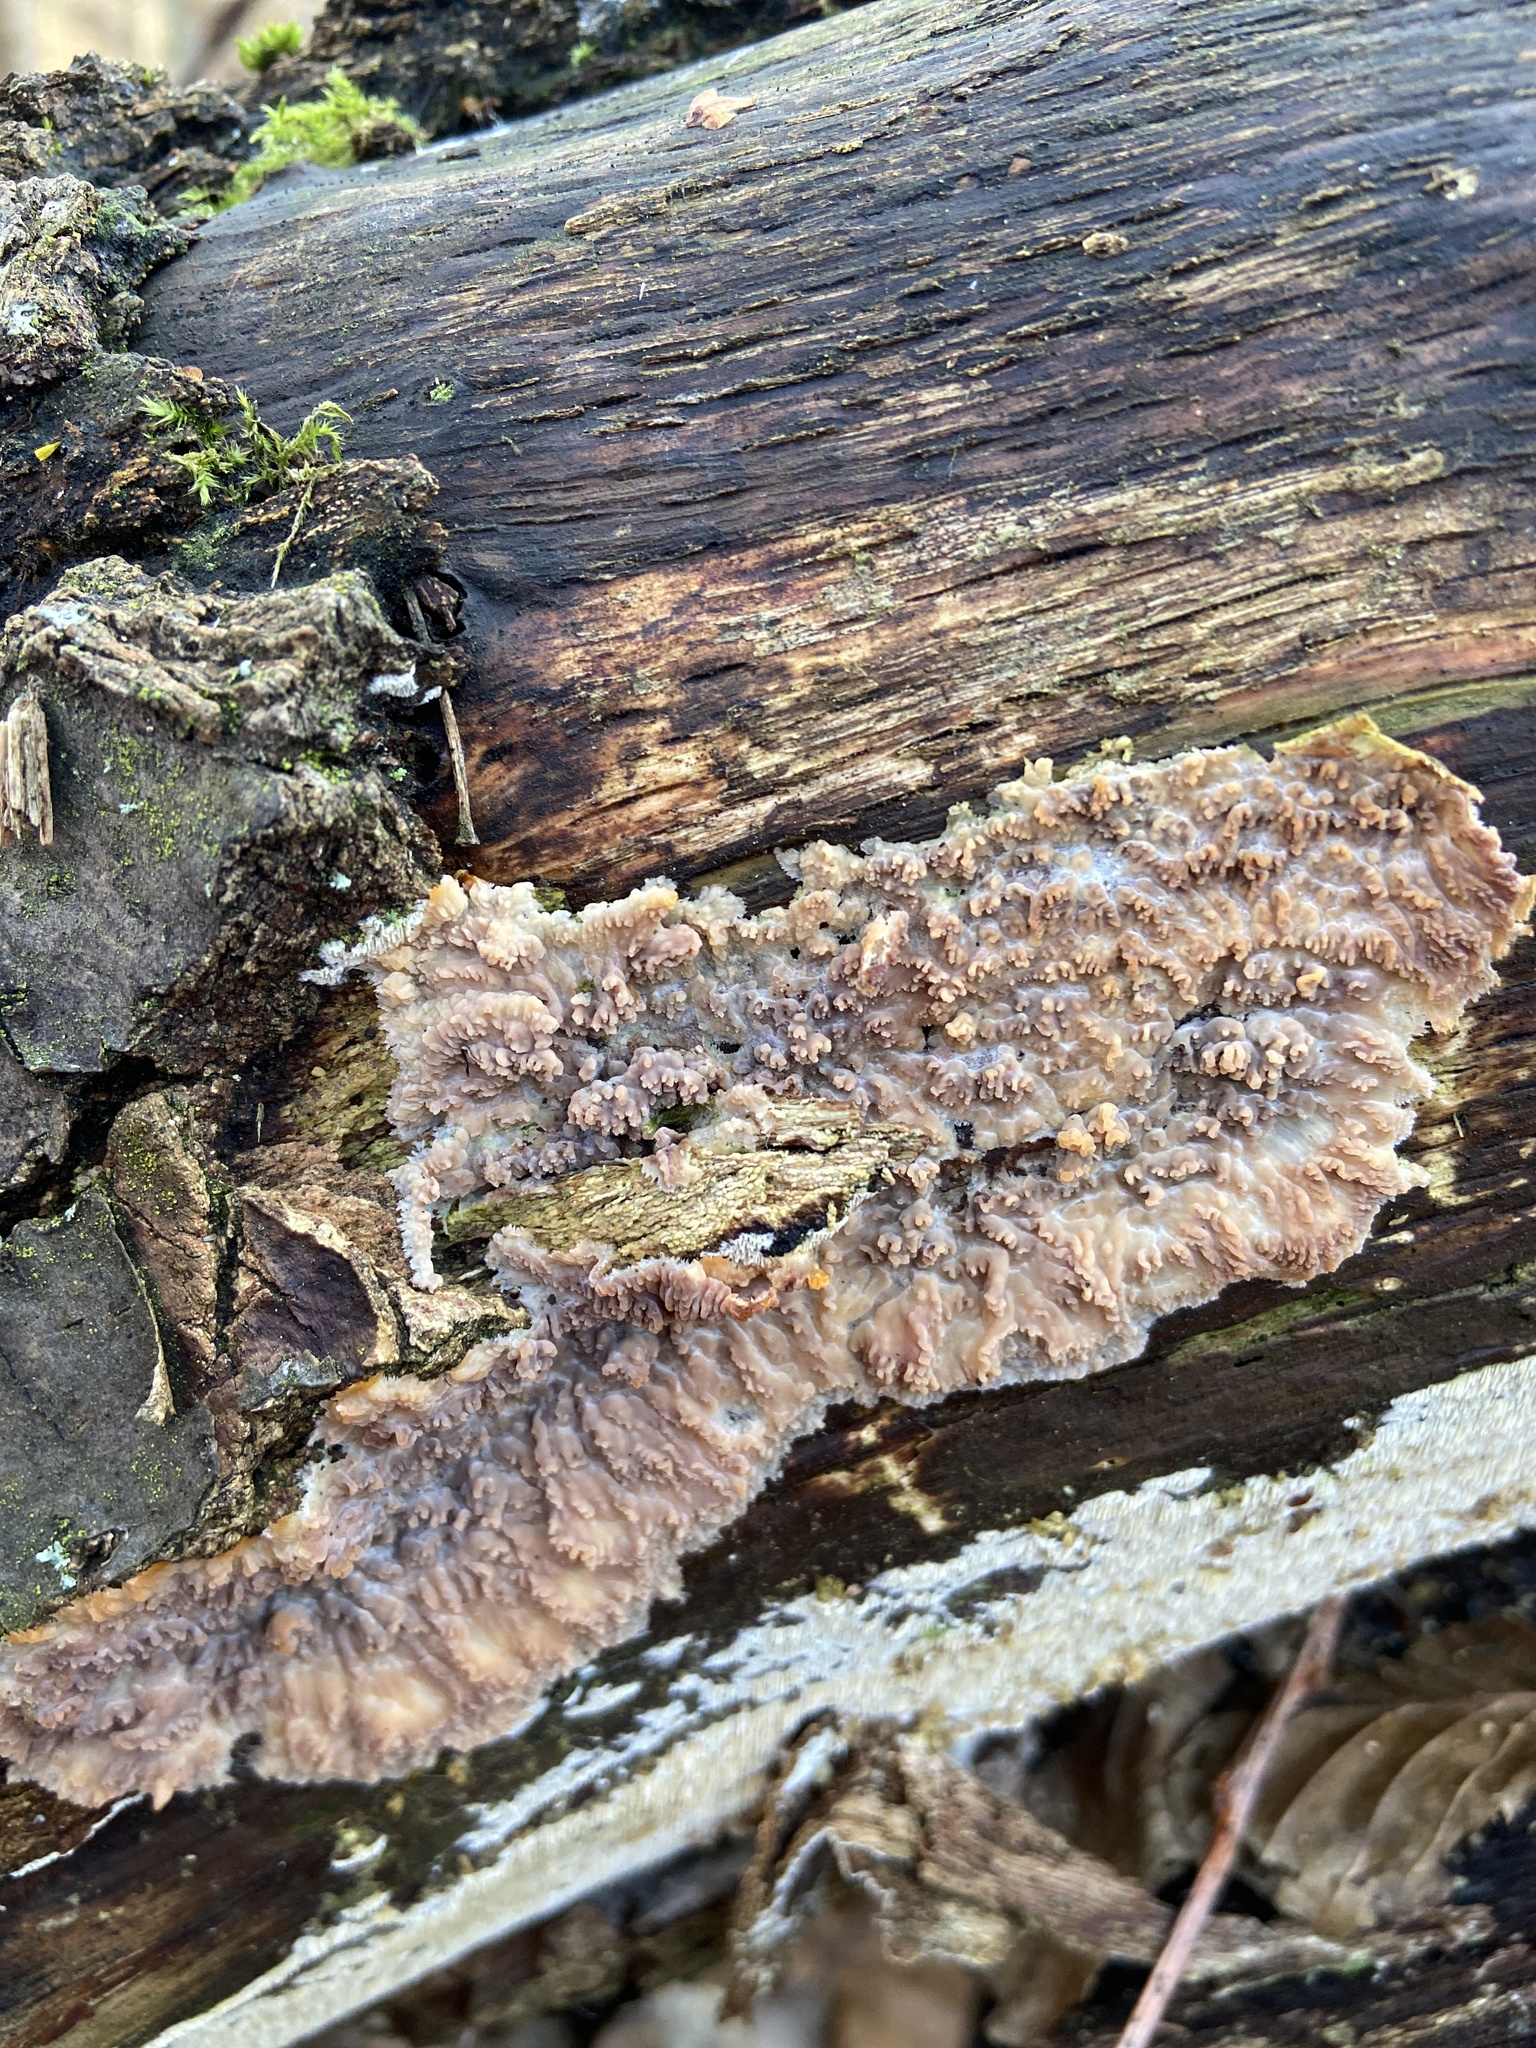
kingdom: Fungi
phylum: Basidiomycota
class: Agaricomycetes
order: Polyporales
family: Meruliaceae
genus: Phlebia
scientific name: Phlebia radiata
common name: Wrinkled crust
